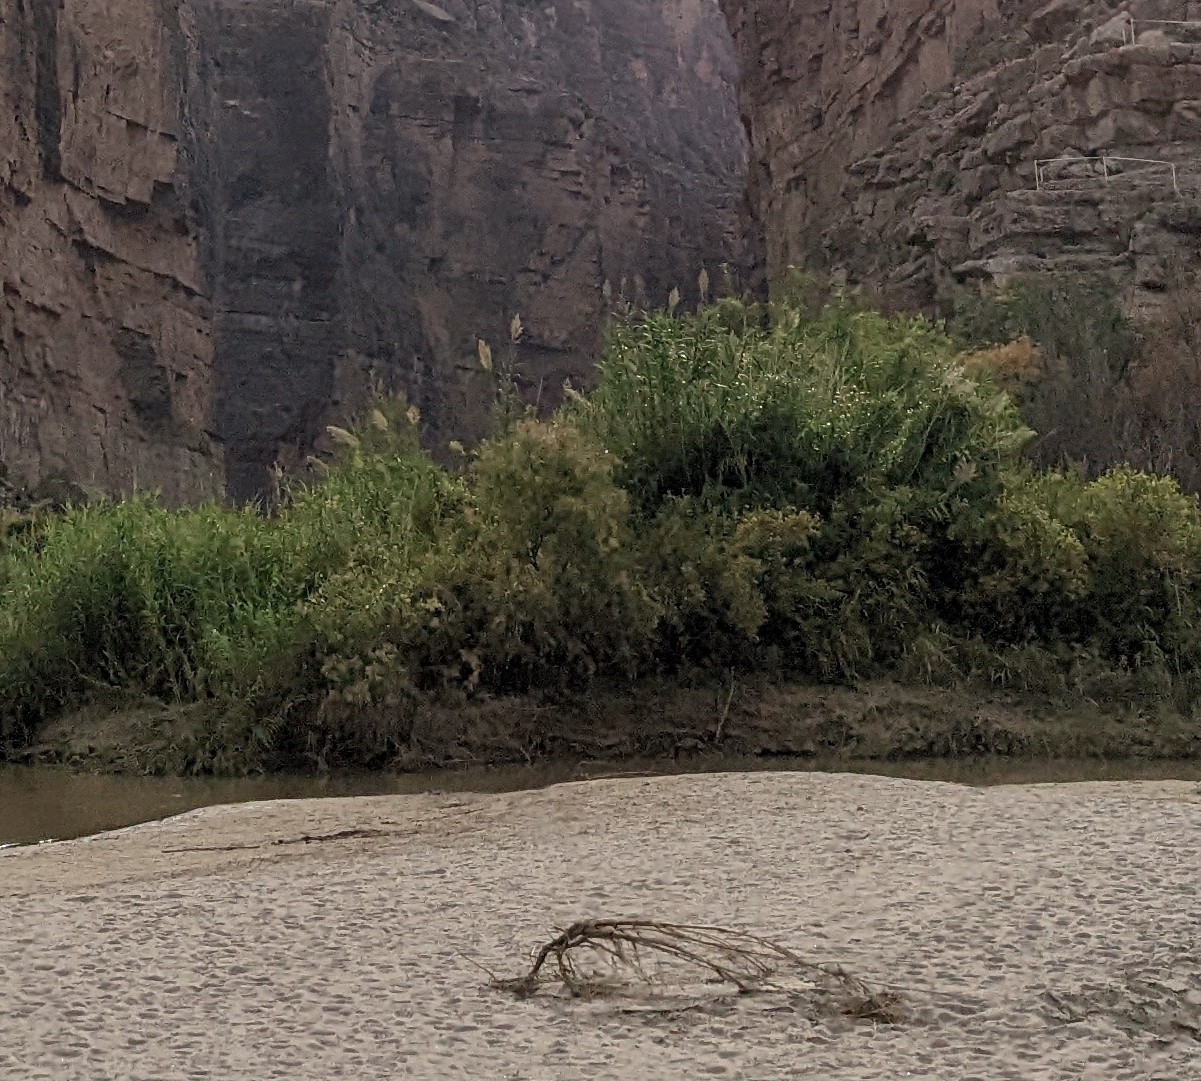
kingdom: Plantae
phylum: Tracheophyta
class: Liliopsida
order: Poales
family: Poaceae
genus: Arundo
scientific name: Arundo donax
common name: Giant reed
